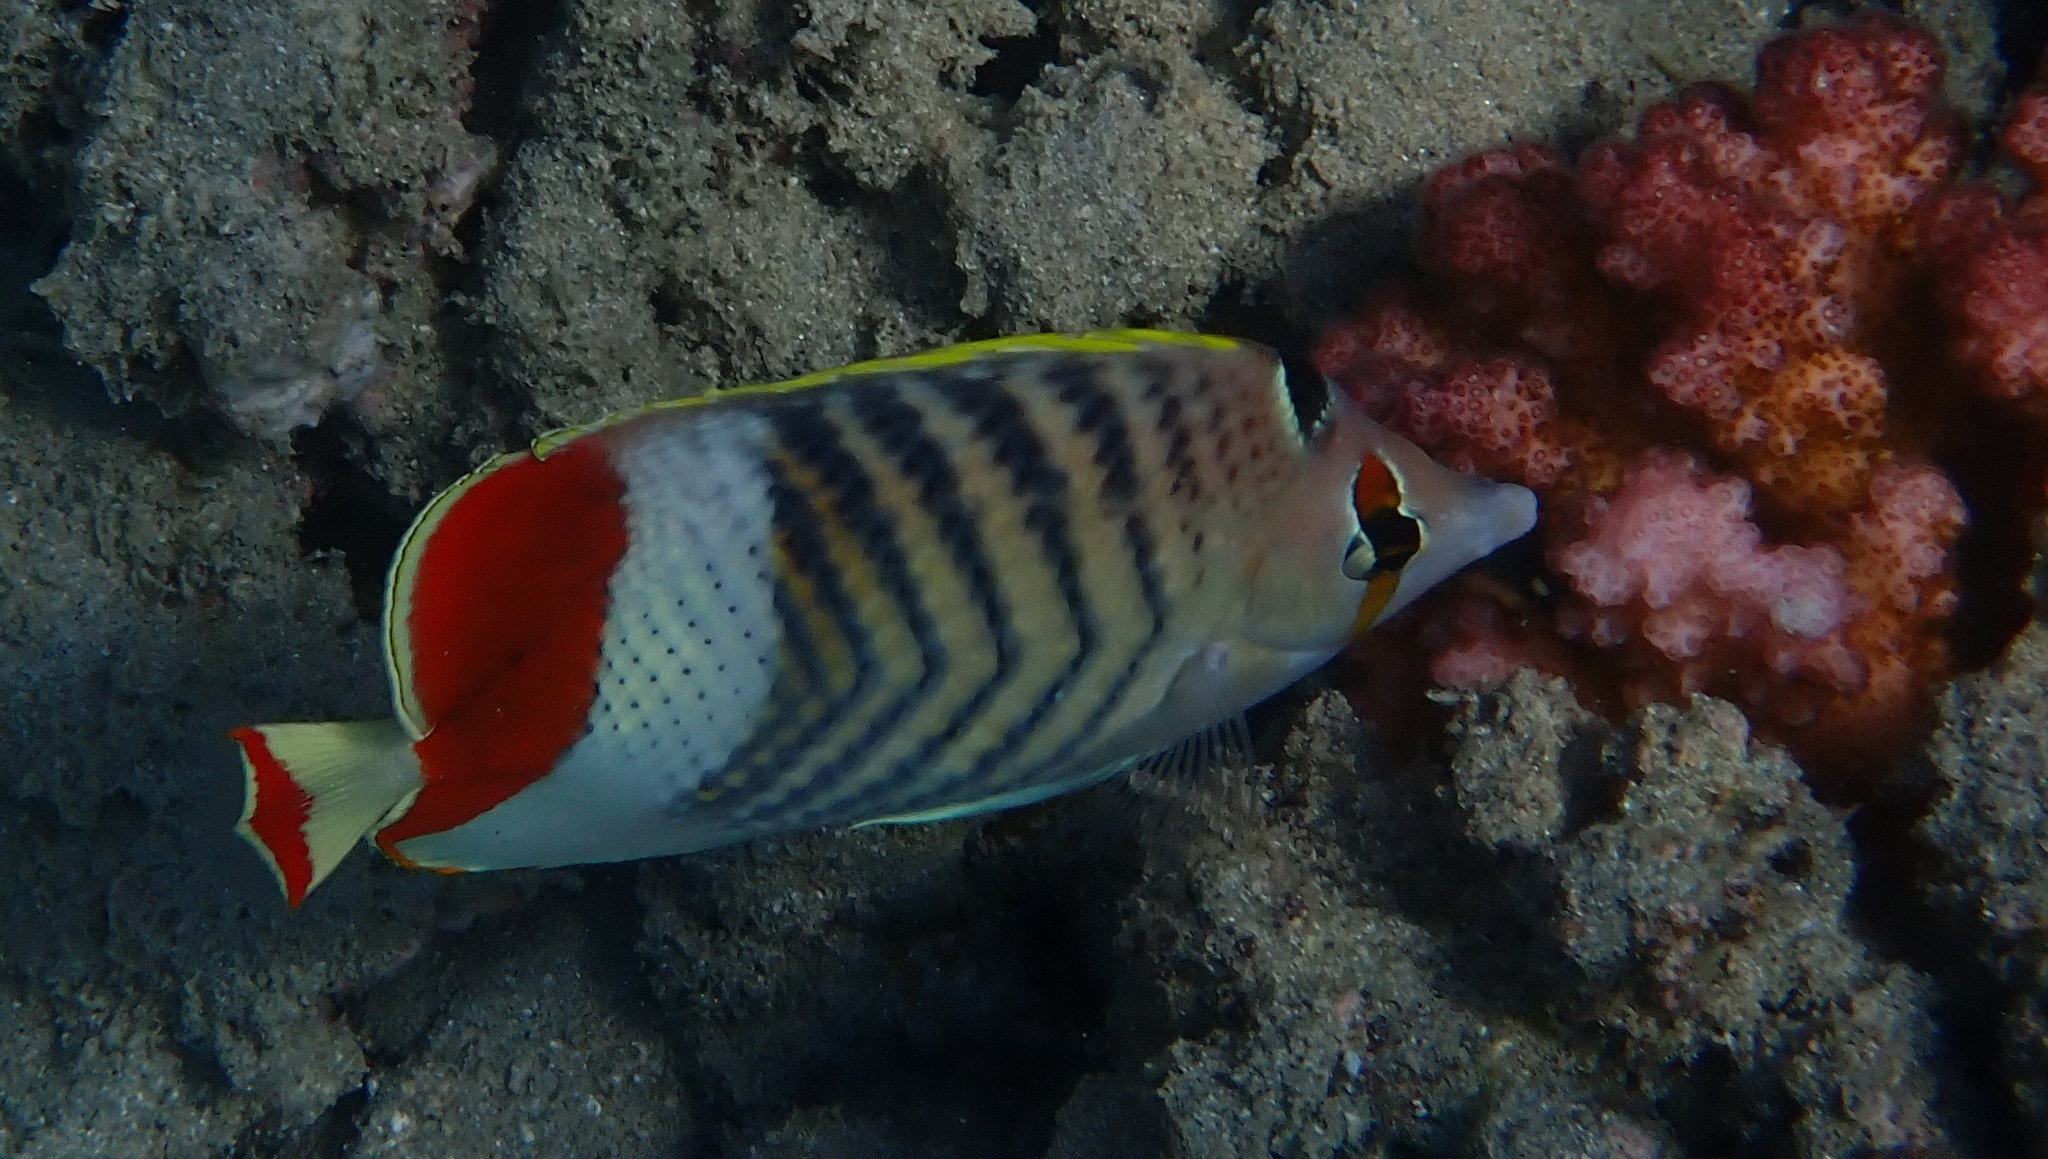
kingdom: Animalia
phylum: Chordata
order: Perciformes
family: Chaetodontidae
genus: Chaetodon
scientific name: Chaetodon paucifasciatus
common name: Crown butterflyfish
